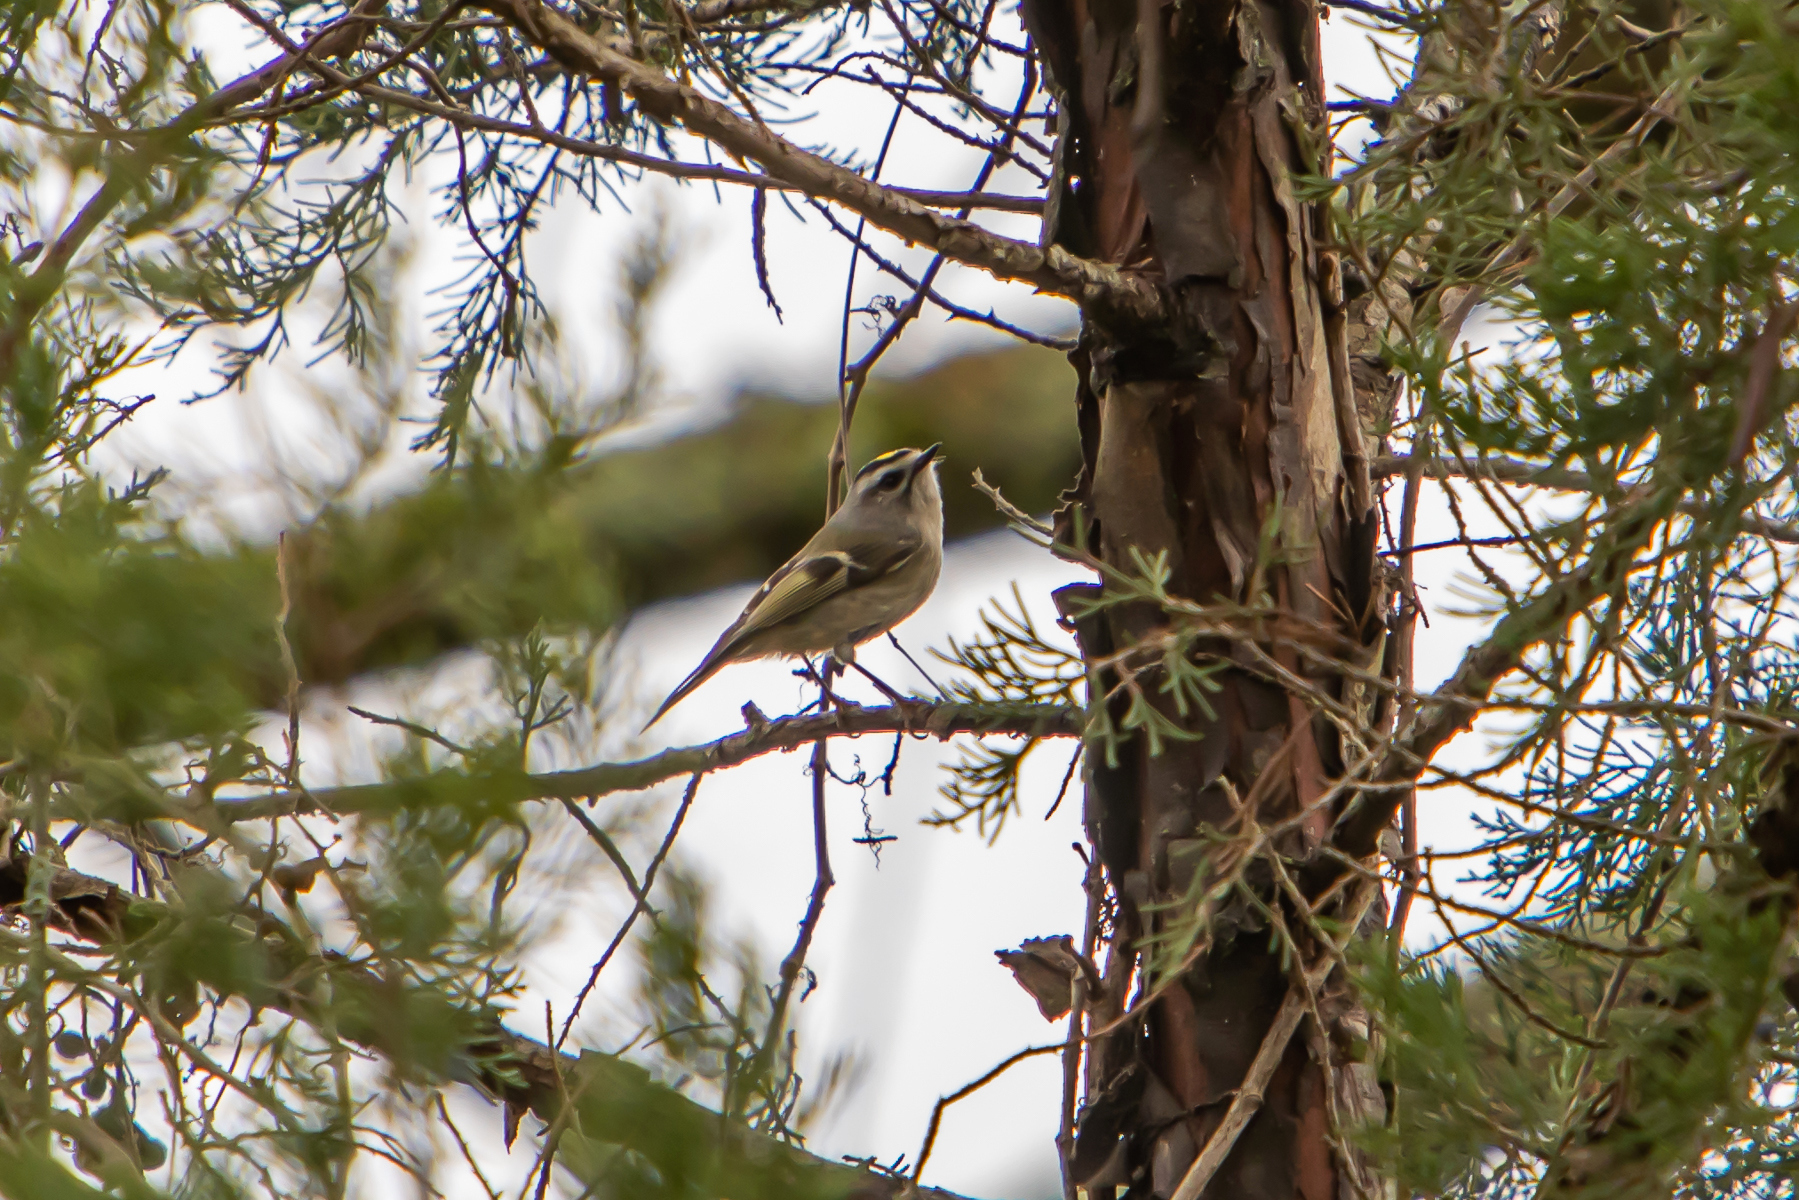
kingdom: Animalia
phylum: Chordata
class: Aves
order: Passeriformes
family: Regulidae
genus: Regulus
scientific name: Regulus satrapa
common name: Golden-crowned kinglet
